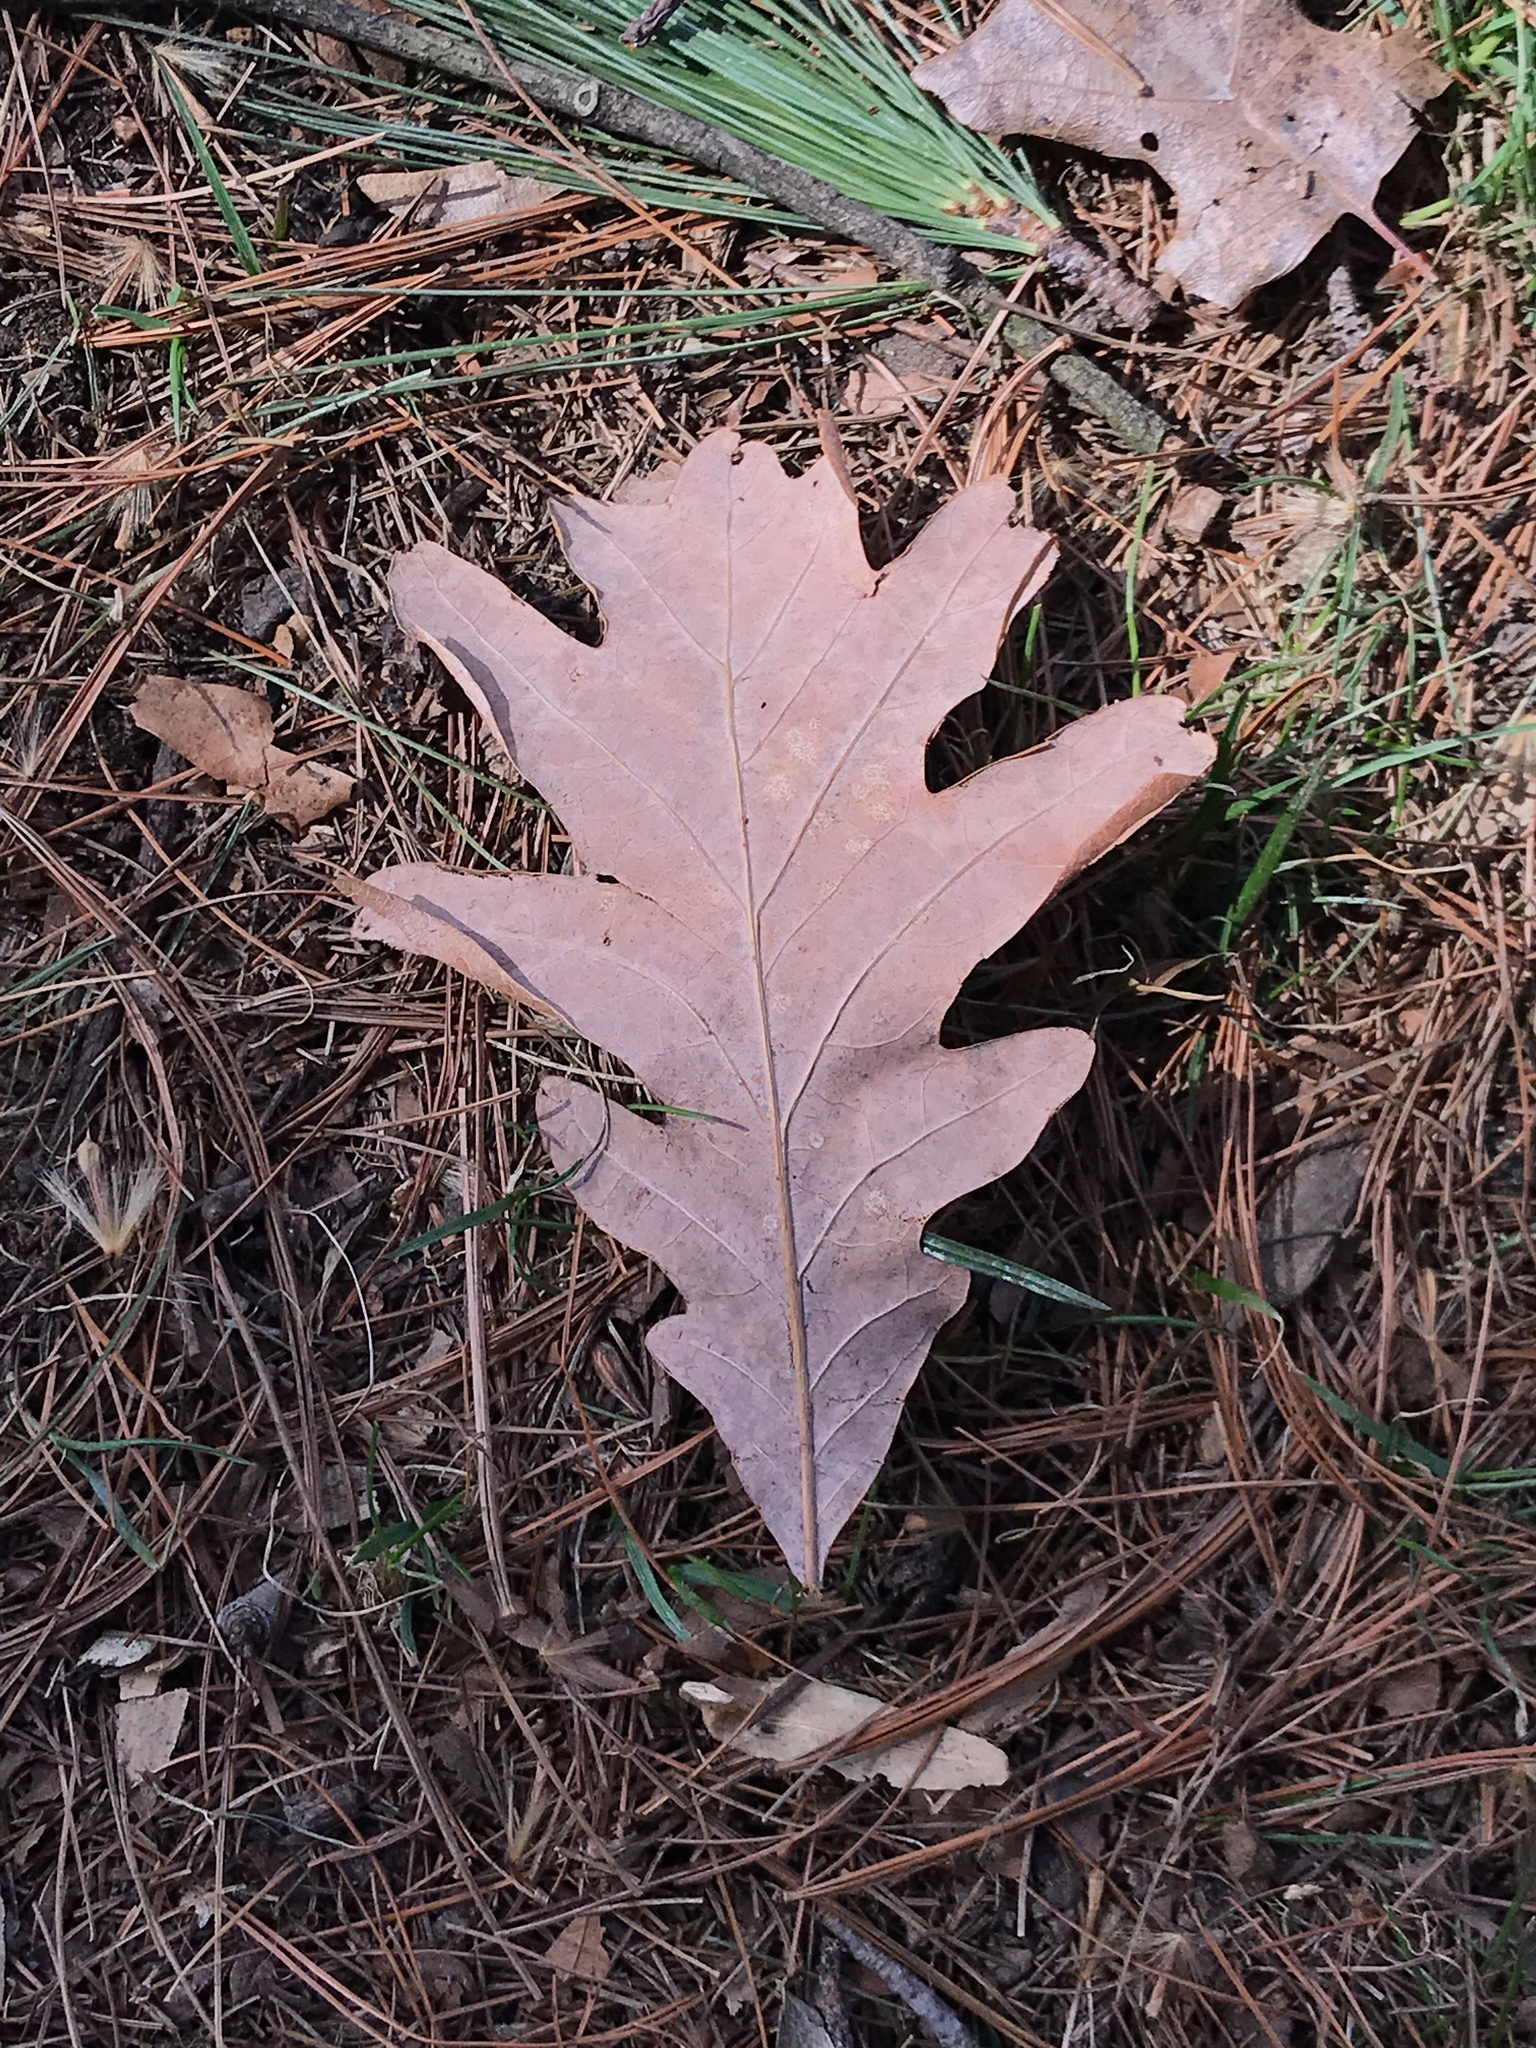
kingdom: Plantae
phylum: Tracheophyta
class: Magnoliopsida
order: Fagales
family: Fagaceae
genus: Quercus
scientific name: Quercus alba
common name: White oak
